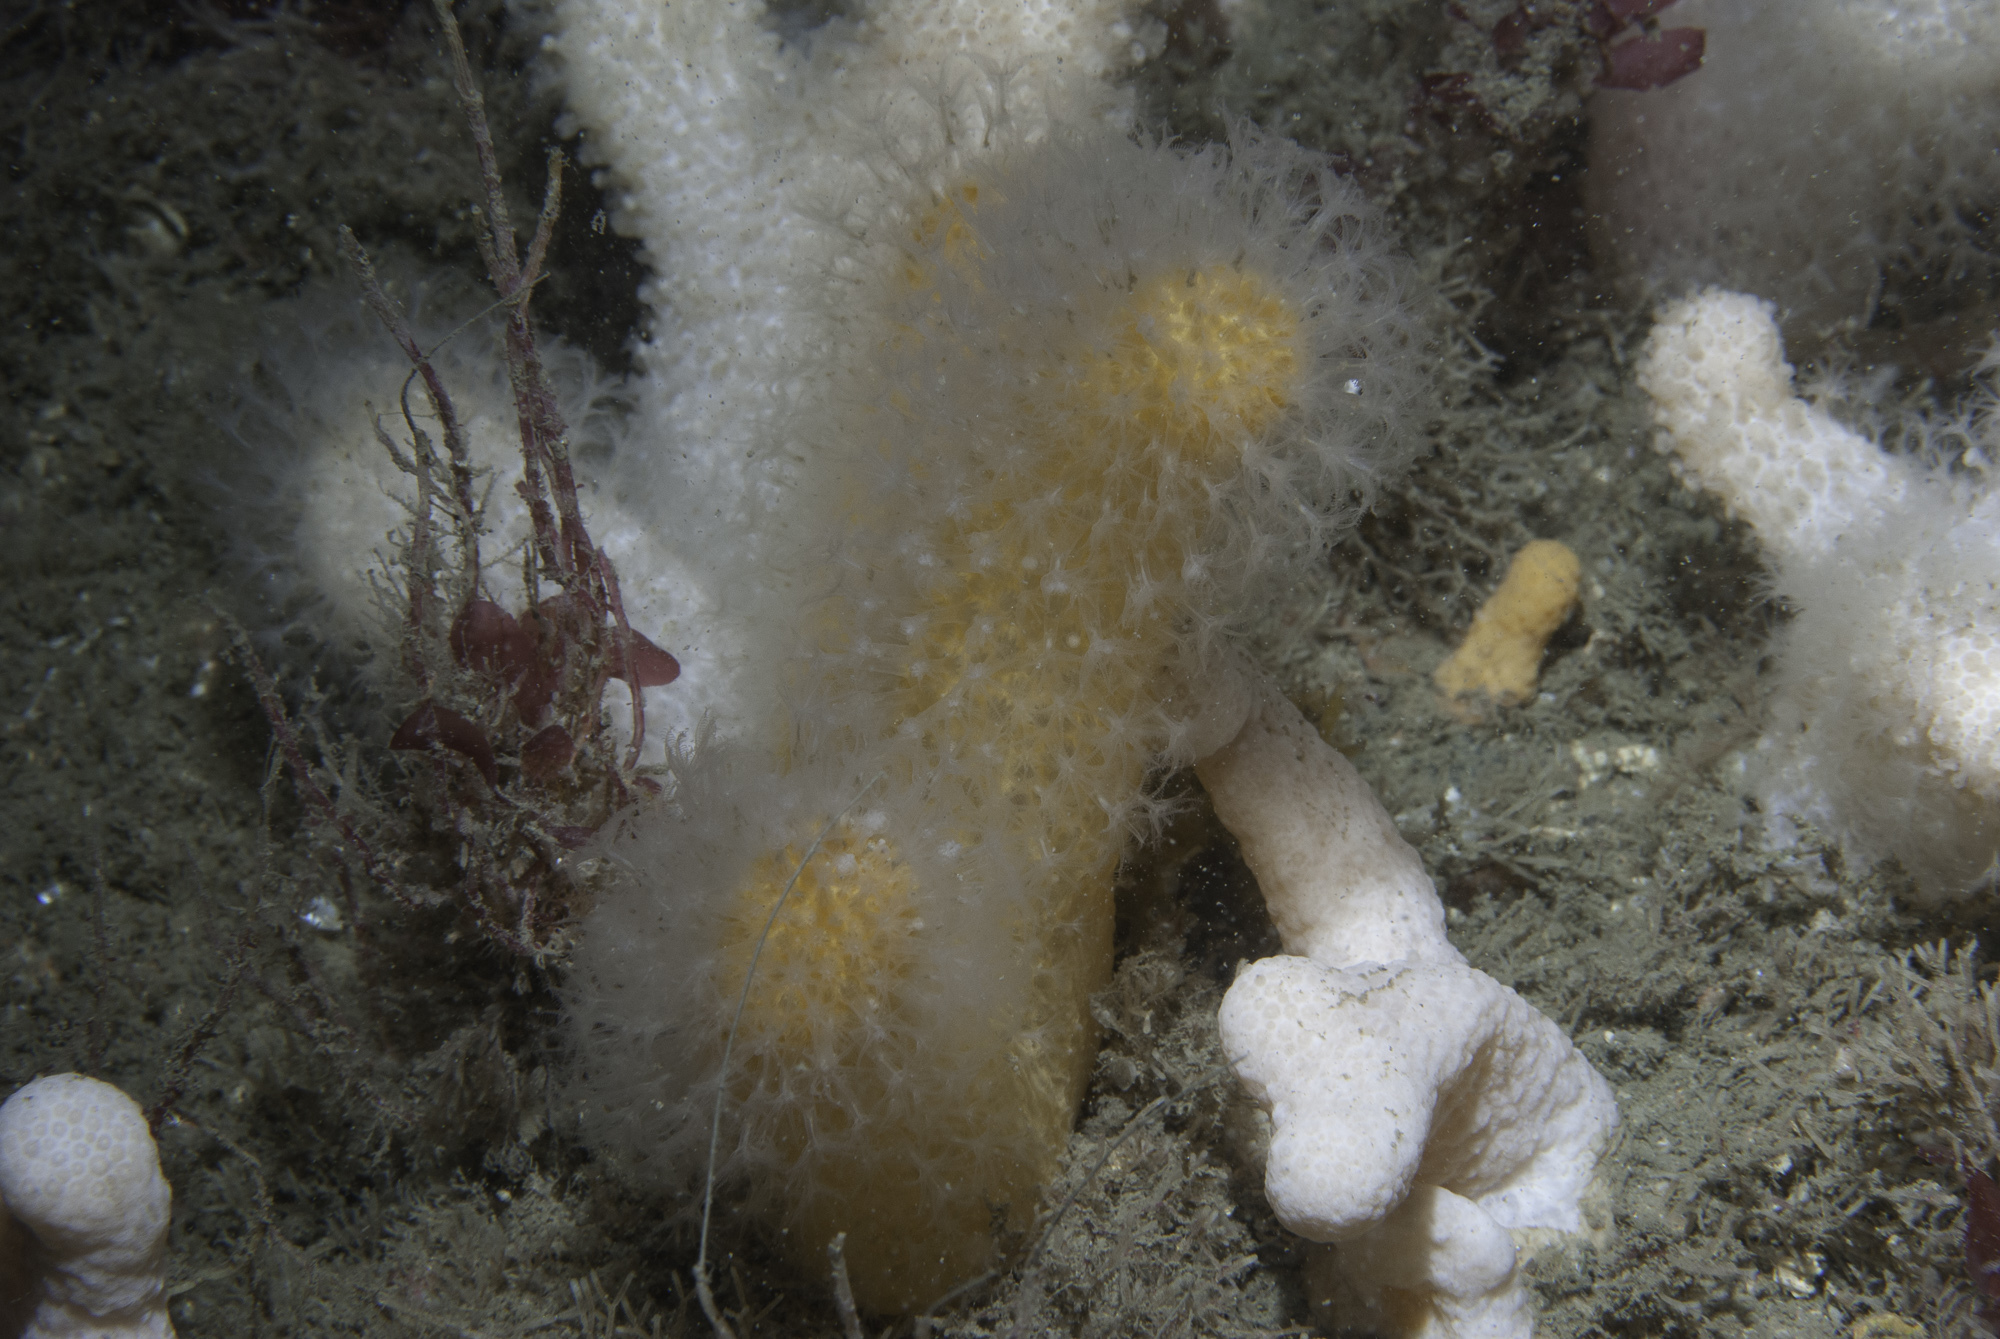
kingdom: Animalia
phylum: Cnidaria
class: Anthozoa
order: Malacalcyonacea
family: Alcyoniidae
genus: Alcyonium
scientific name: Alcyonium digitatum
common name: Dead man's fingers
